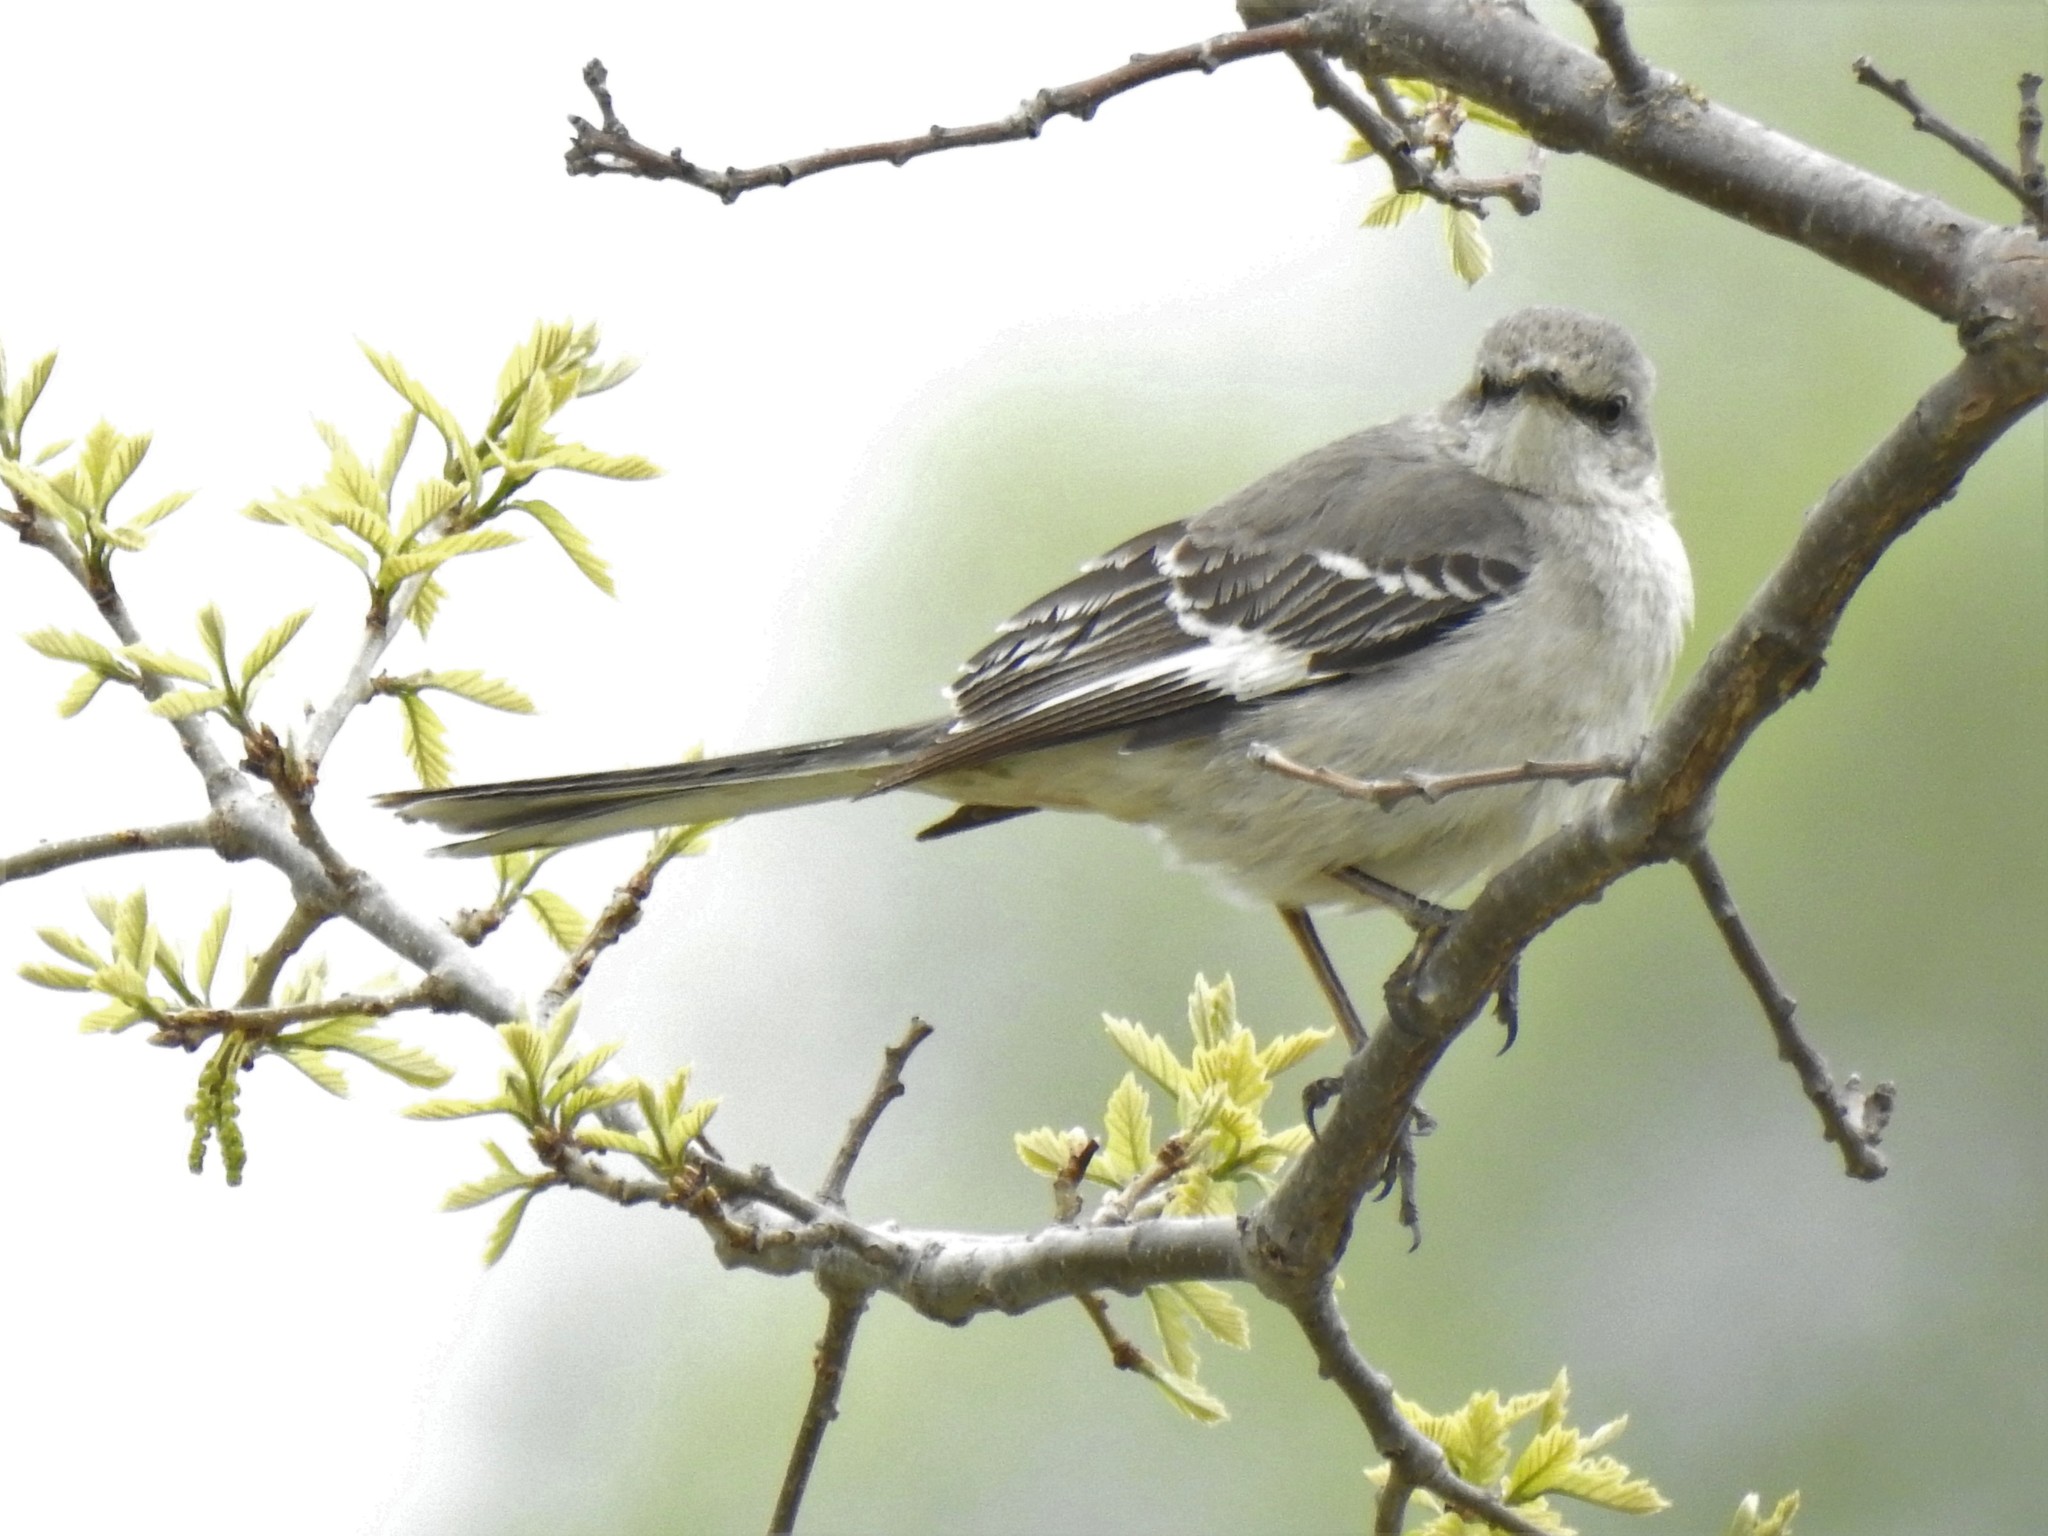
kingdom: Animalia
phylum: Chordata
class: Aves
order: Passeriformes
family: Mimidae
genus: Mimus
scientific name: Mimus polyglottos
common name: Northern mockingbird
